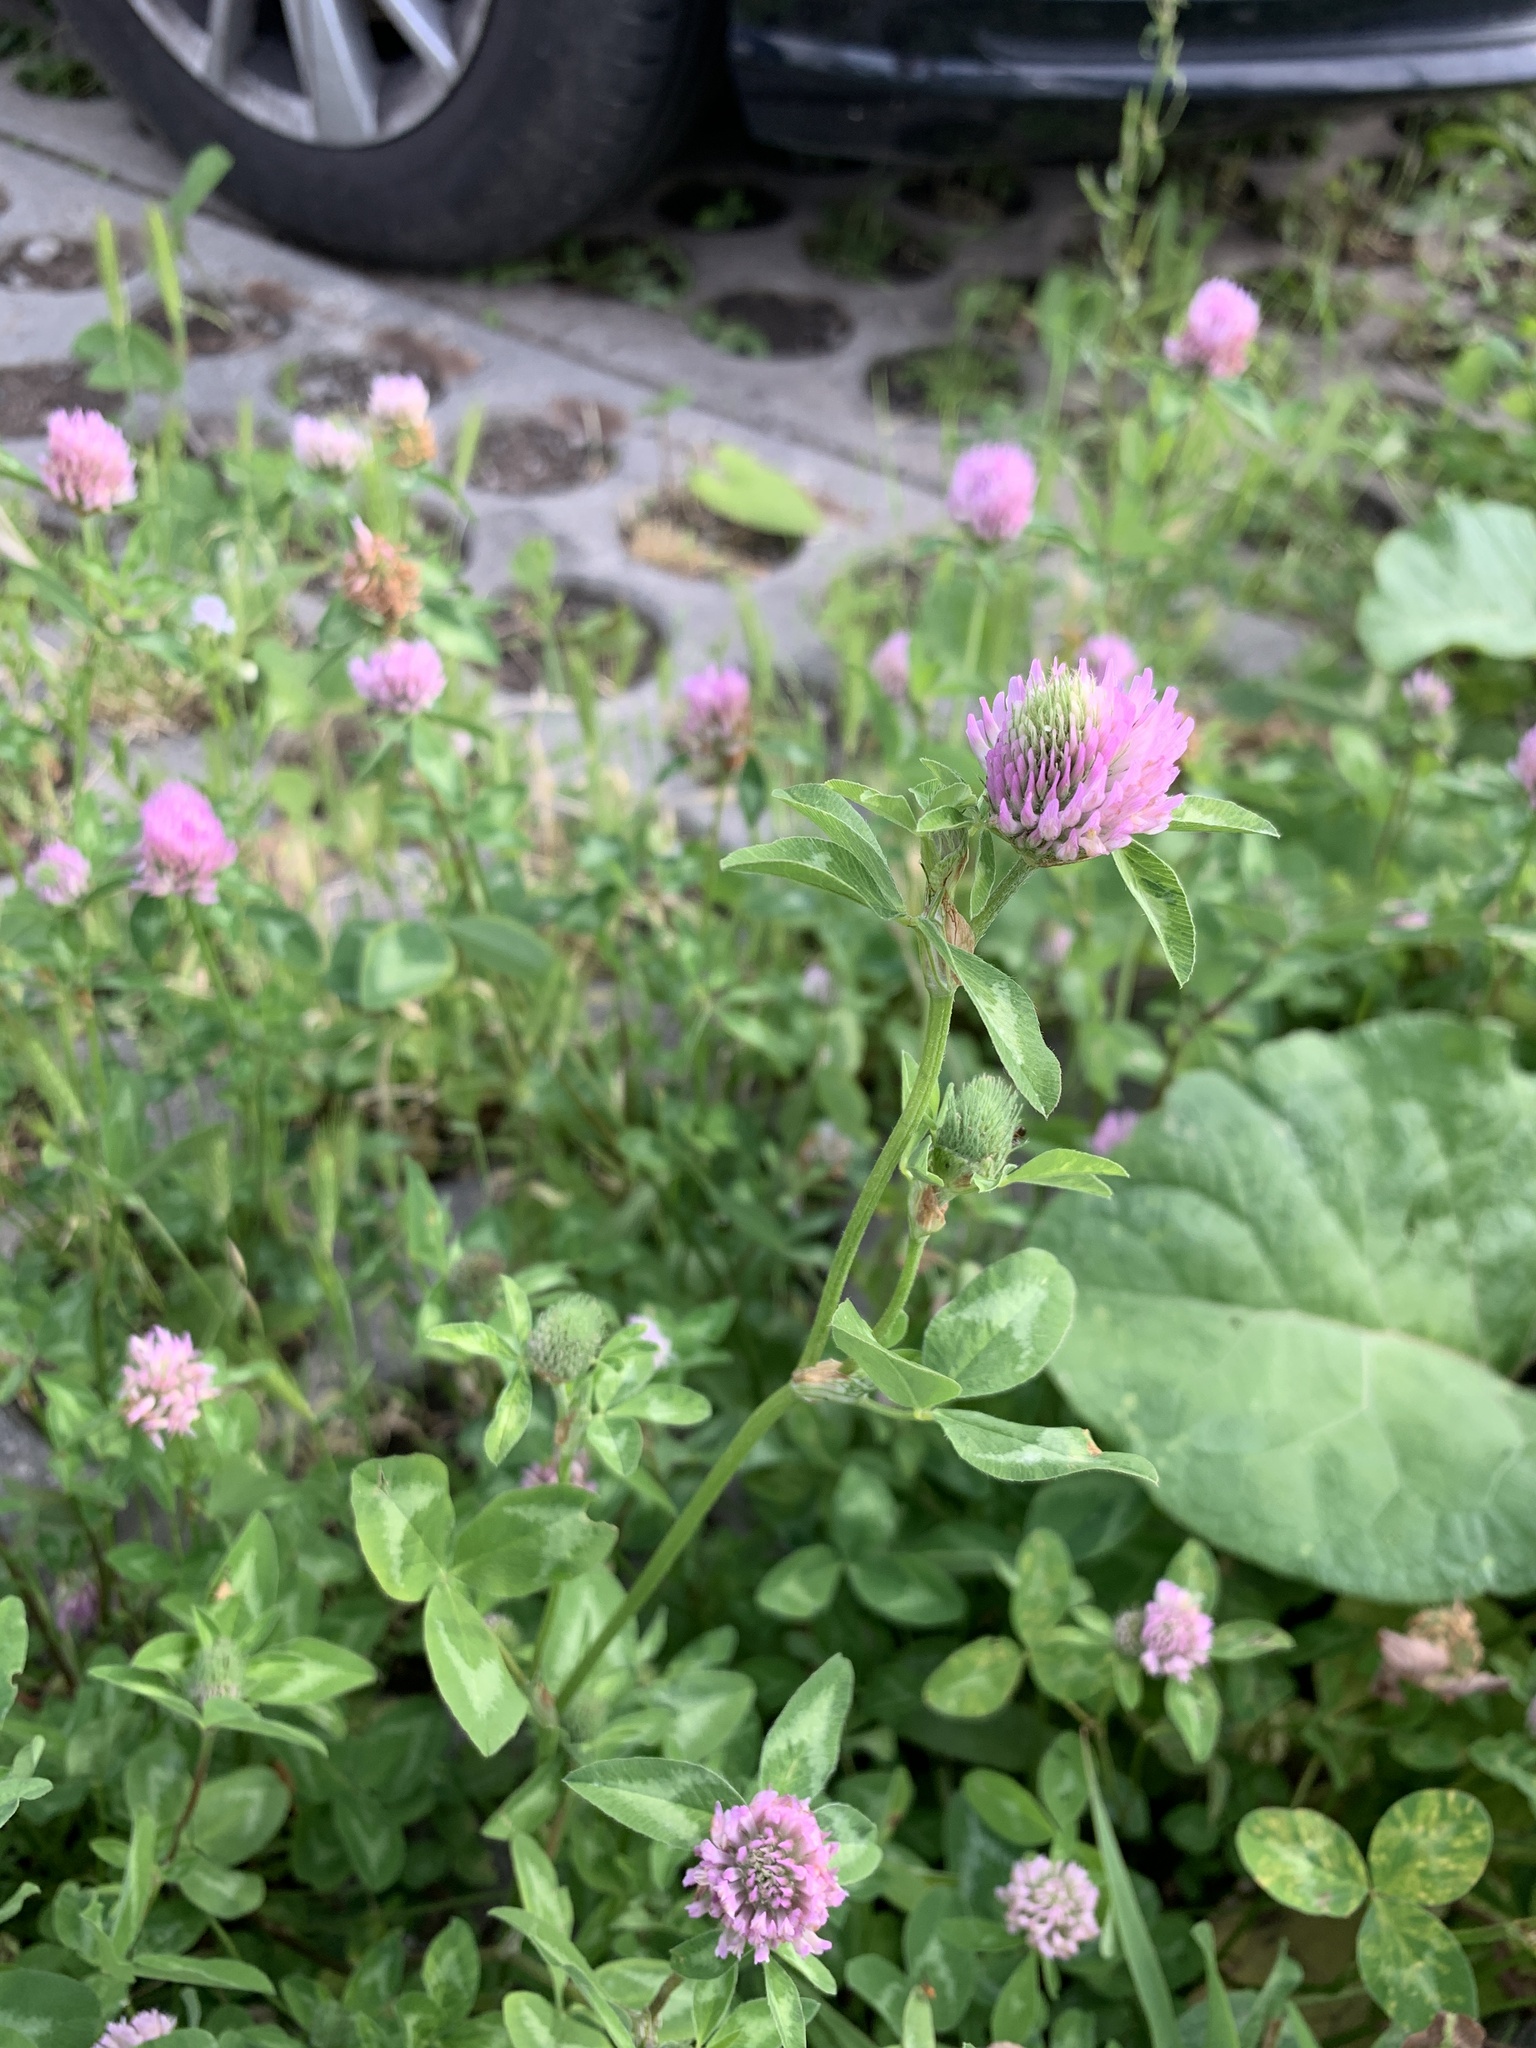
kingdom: Plantae
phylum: Tracheophyta
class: Magnoliopsida
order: Fabales
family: Fabaceae
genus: Trifolium
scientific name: Trifolium pratense
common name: Red clover
